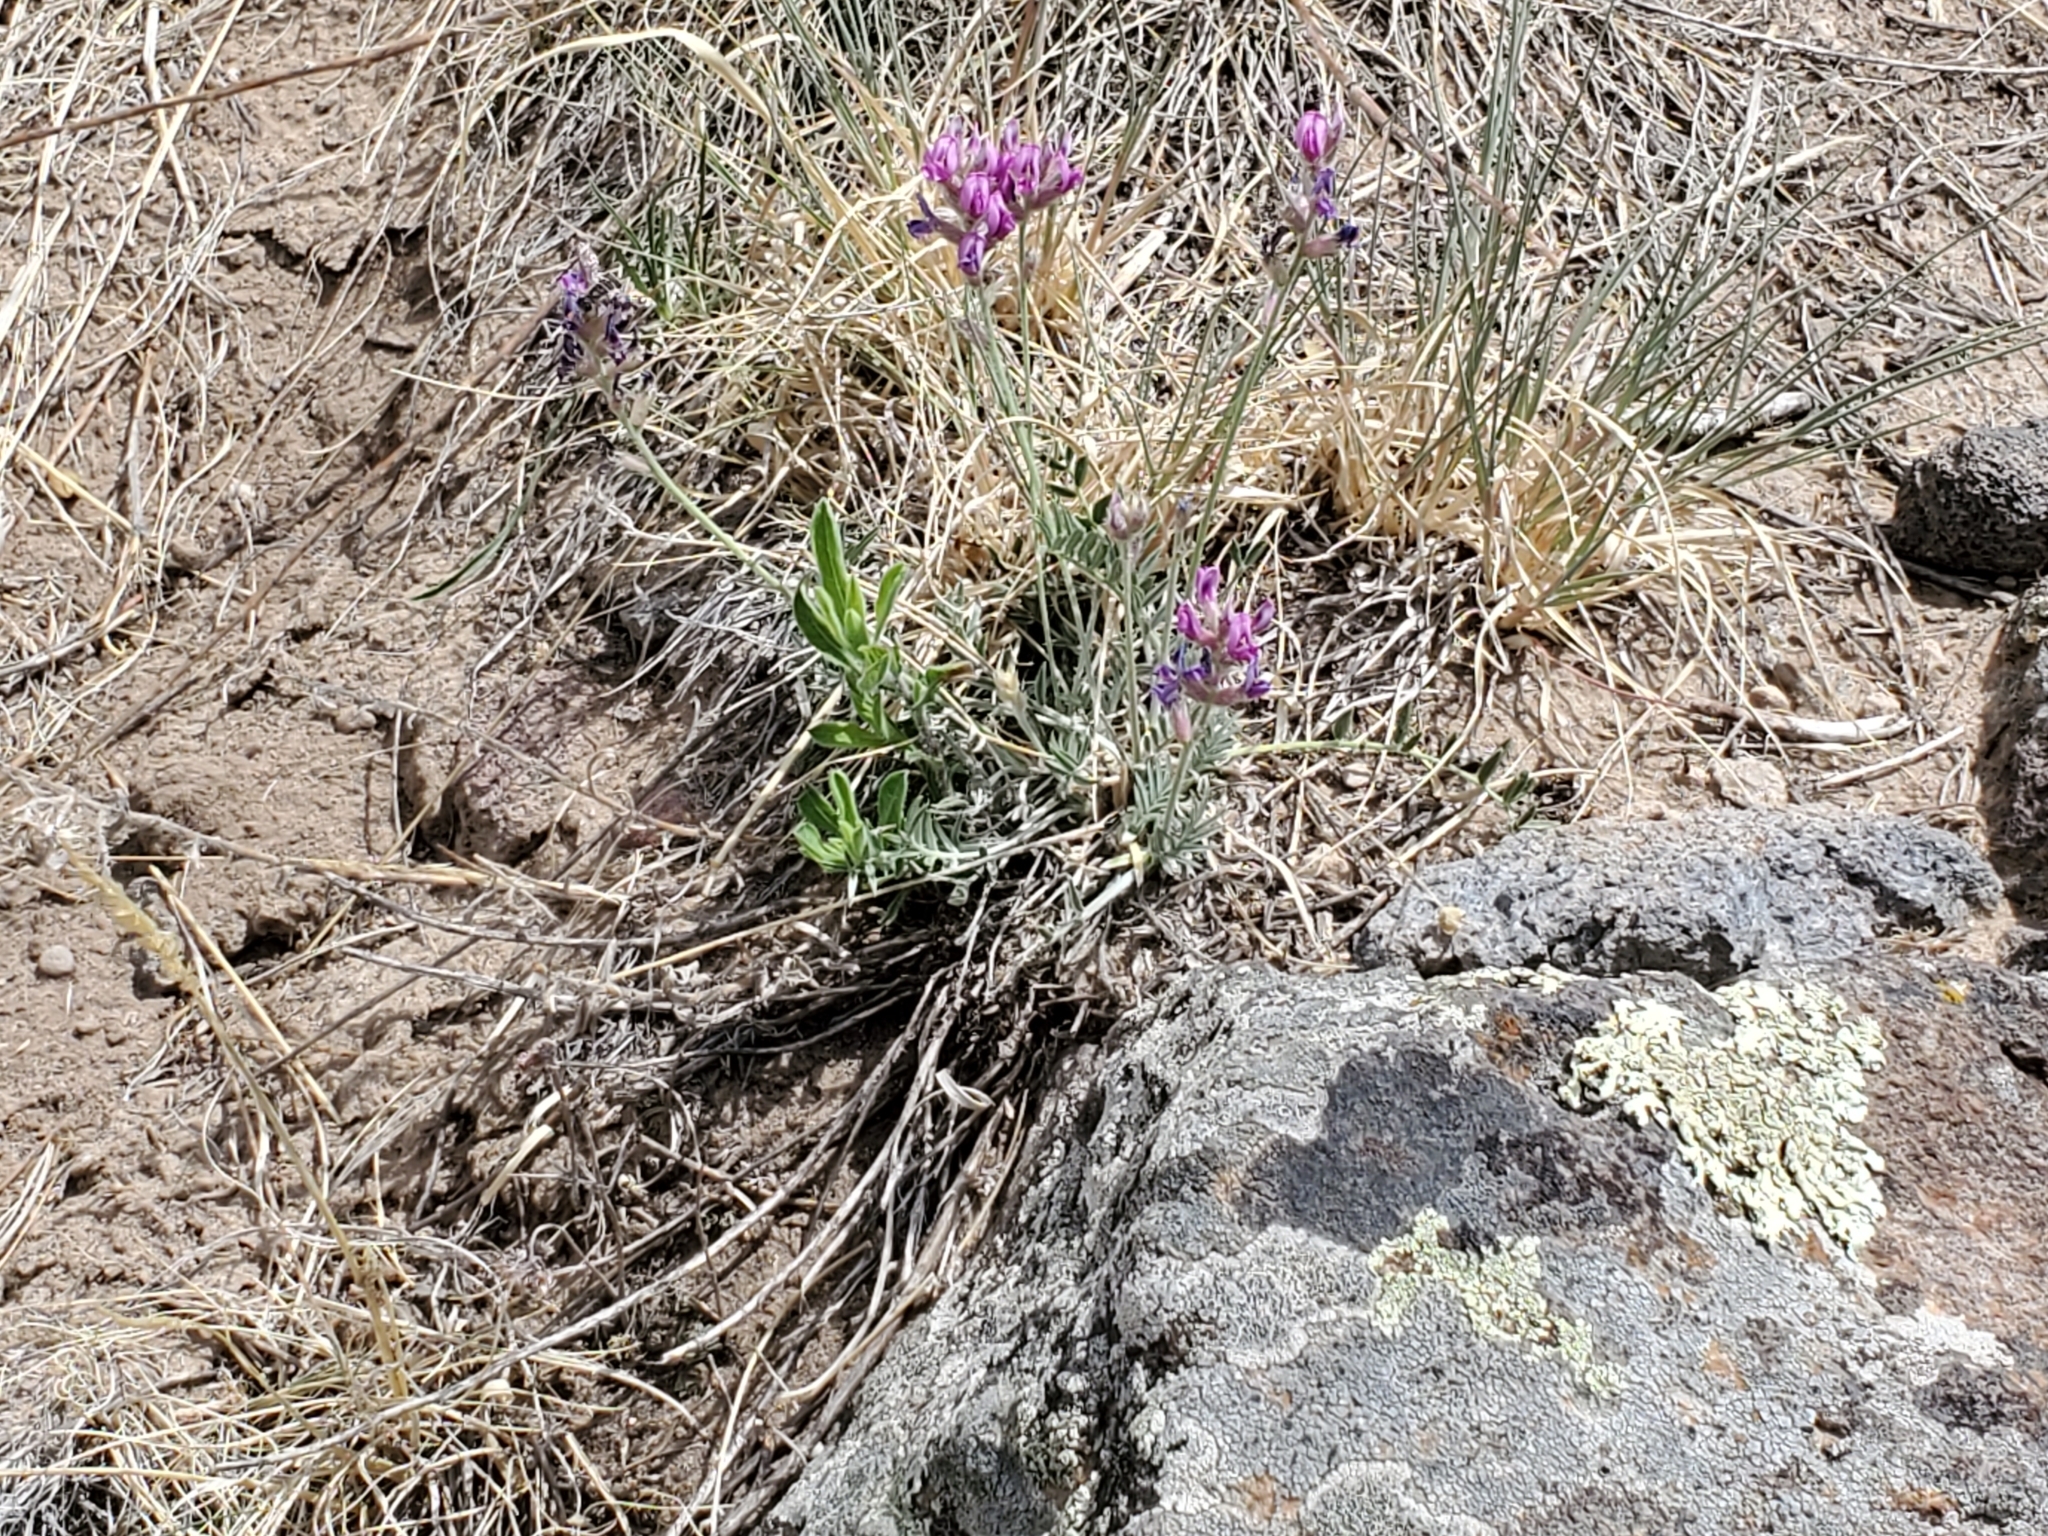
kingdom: Plantae
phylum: Tracheophyta
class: Magnoliopsida
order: Fabales
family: Fabaceae
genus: Oxytropis
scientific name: Oxytropis lambertii
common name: Purple locoweed
